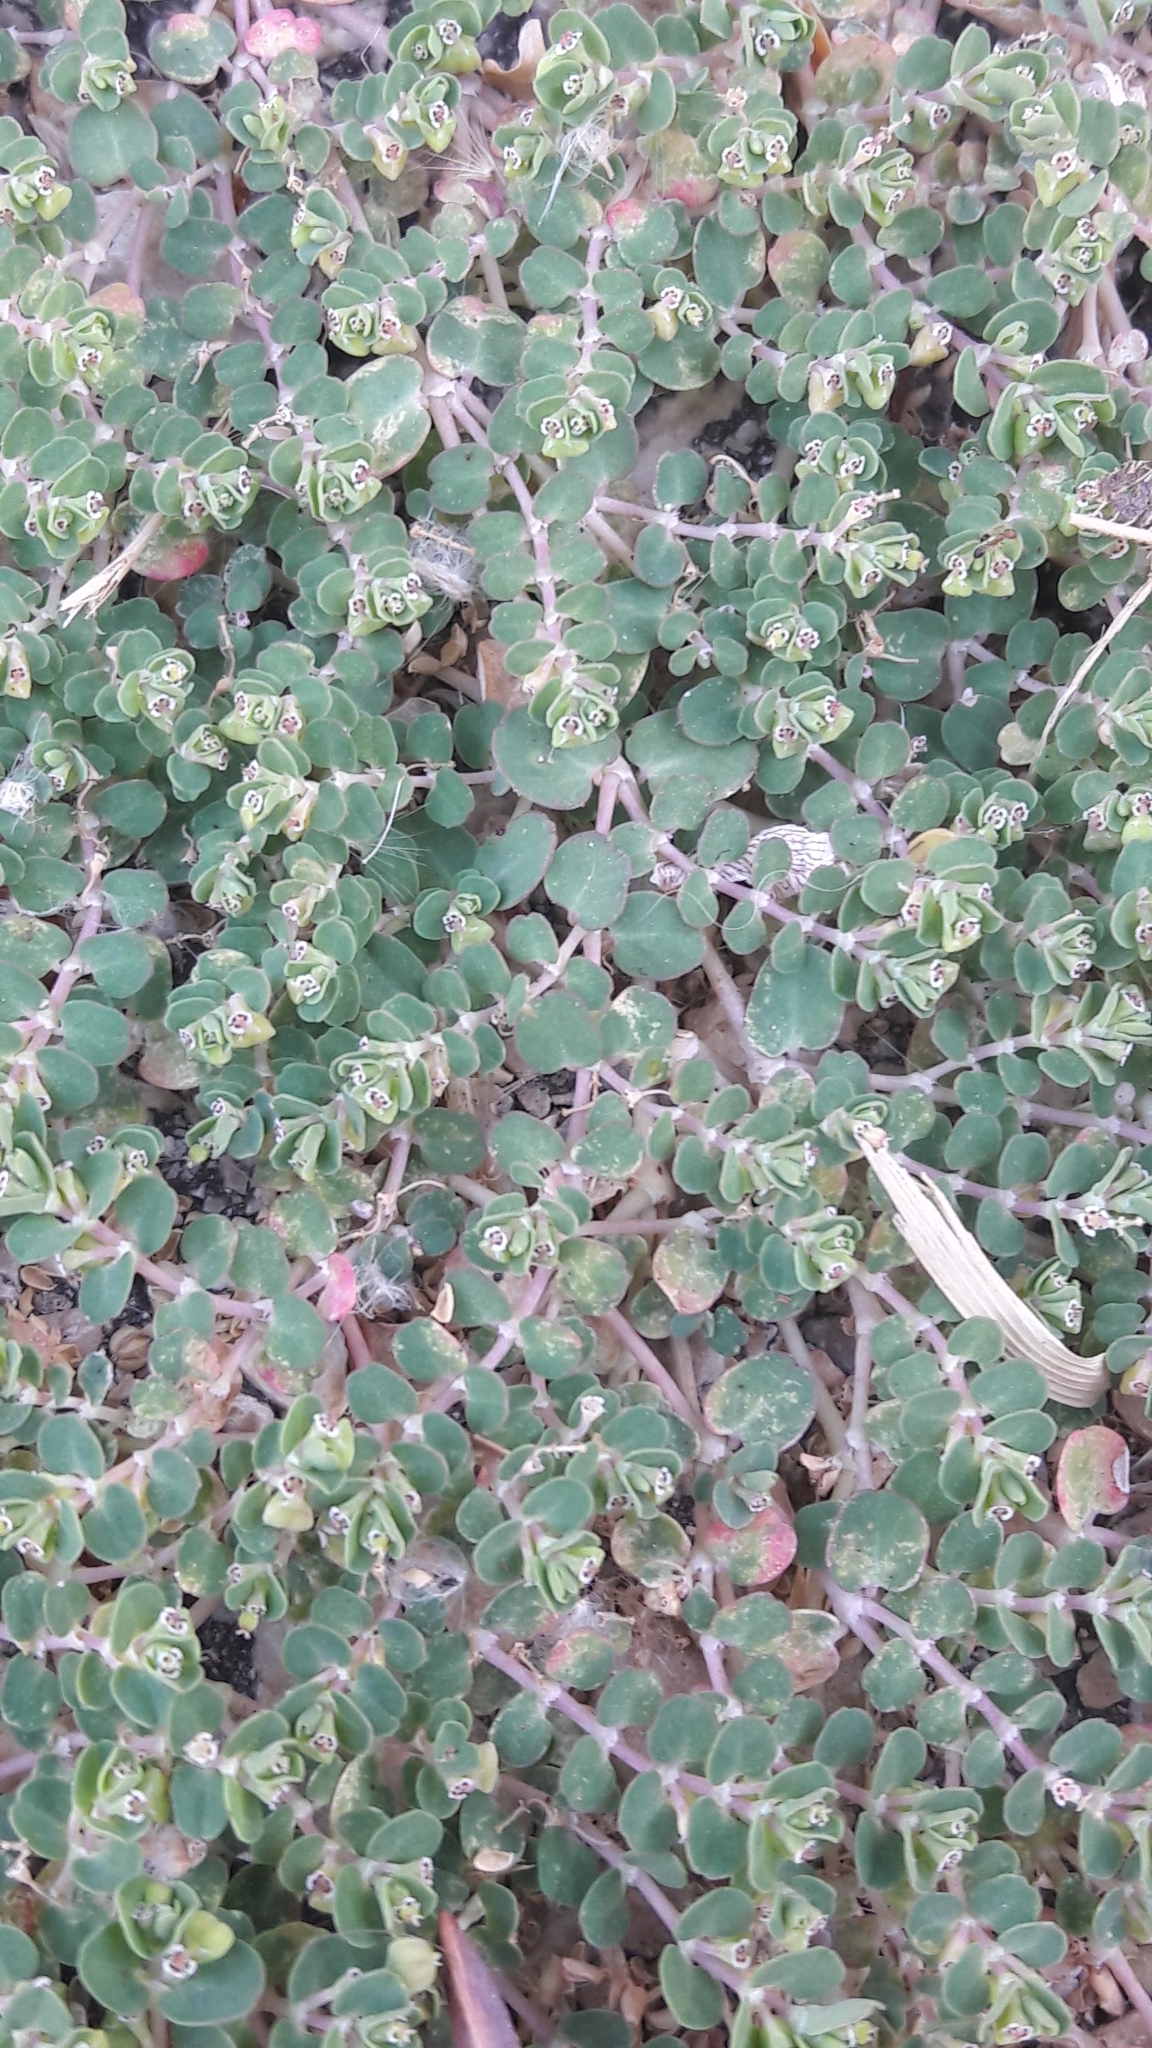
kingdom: Plantae
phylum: Tracheophyta
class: Magnoliopsida
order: Malpighiales
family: Euphorbiaceae
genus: Euphorbia
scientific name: Euphorbia serpens
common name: Matted sandmat
